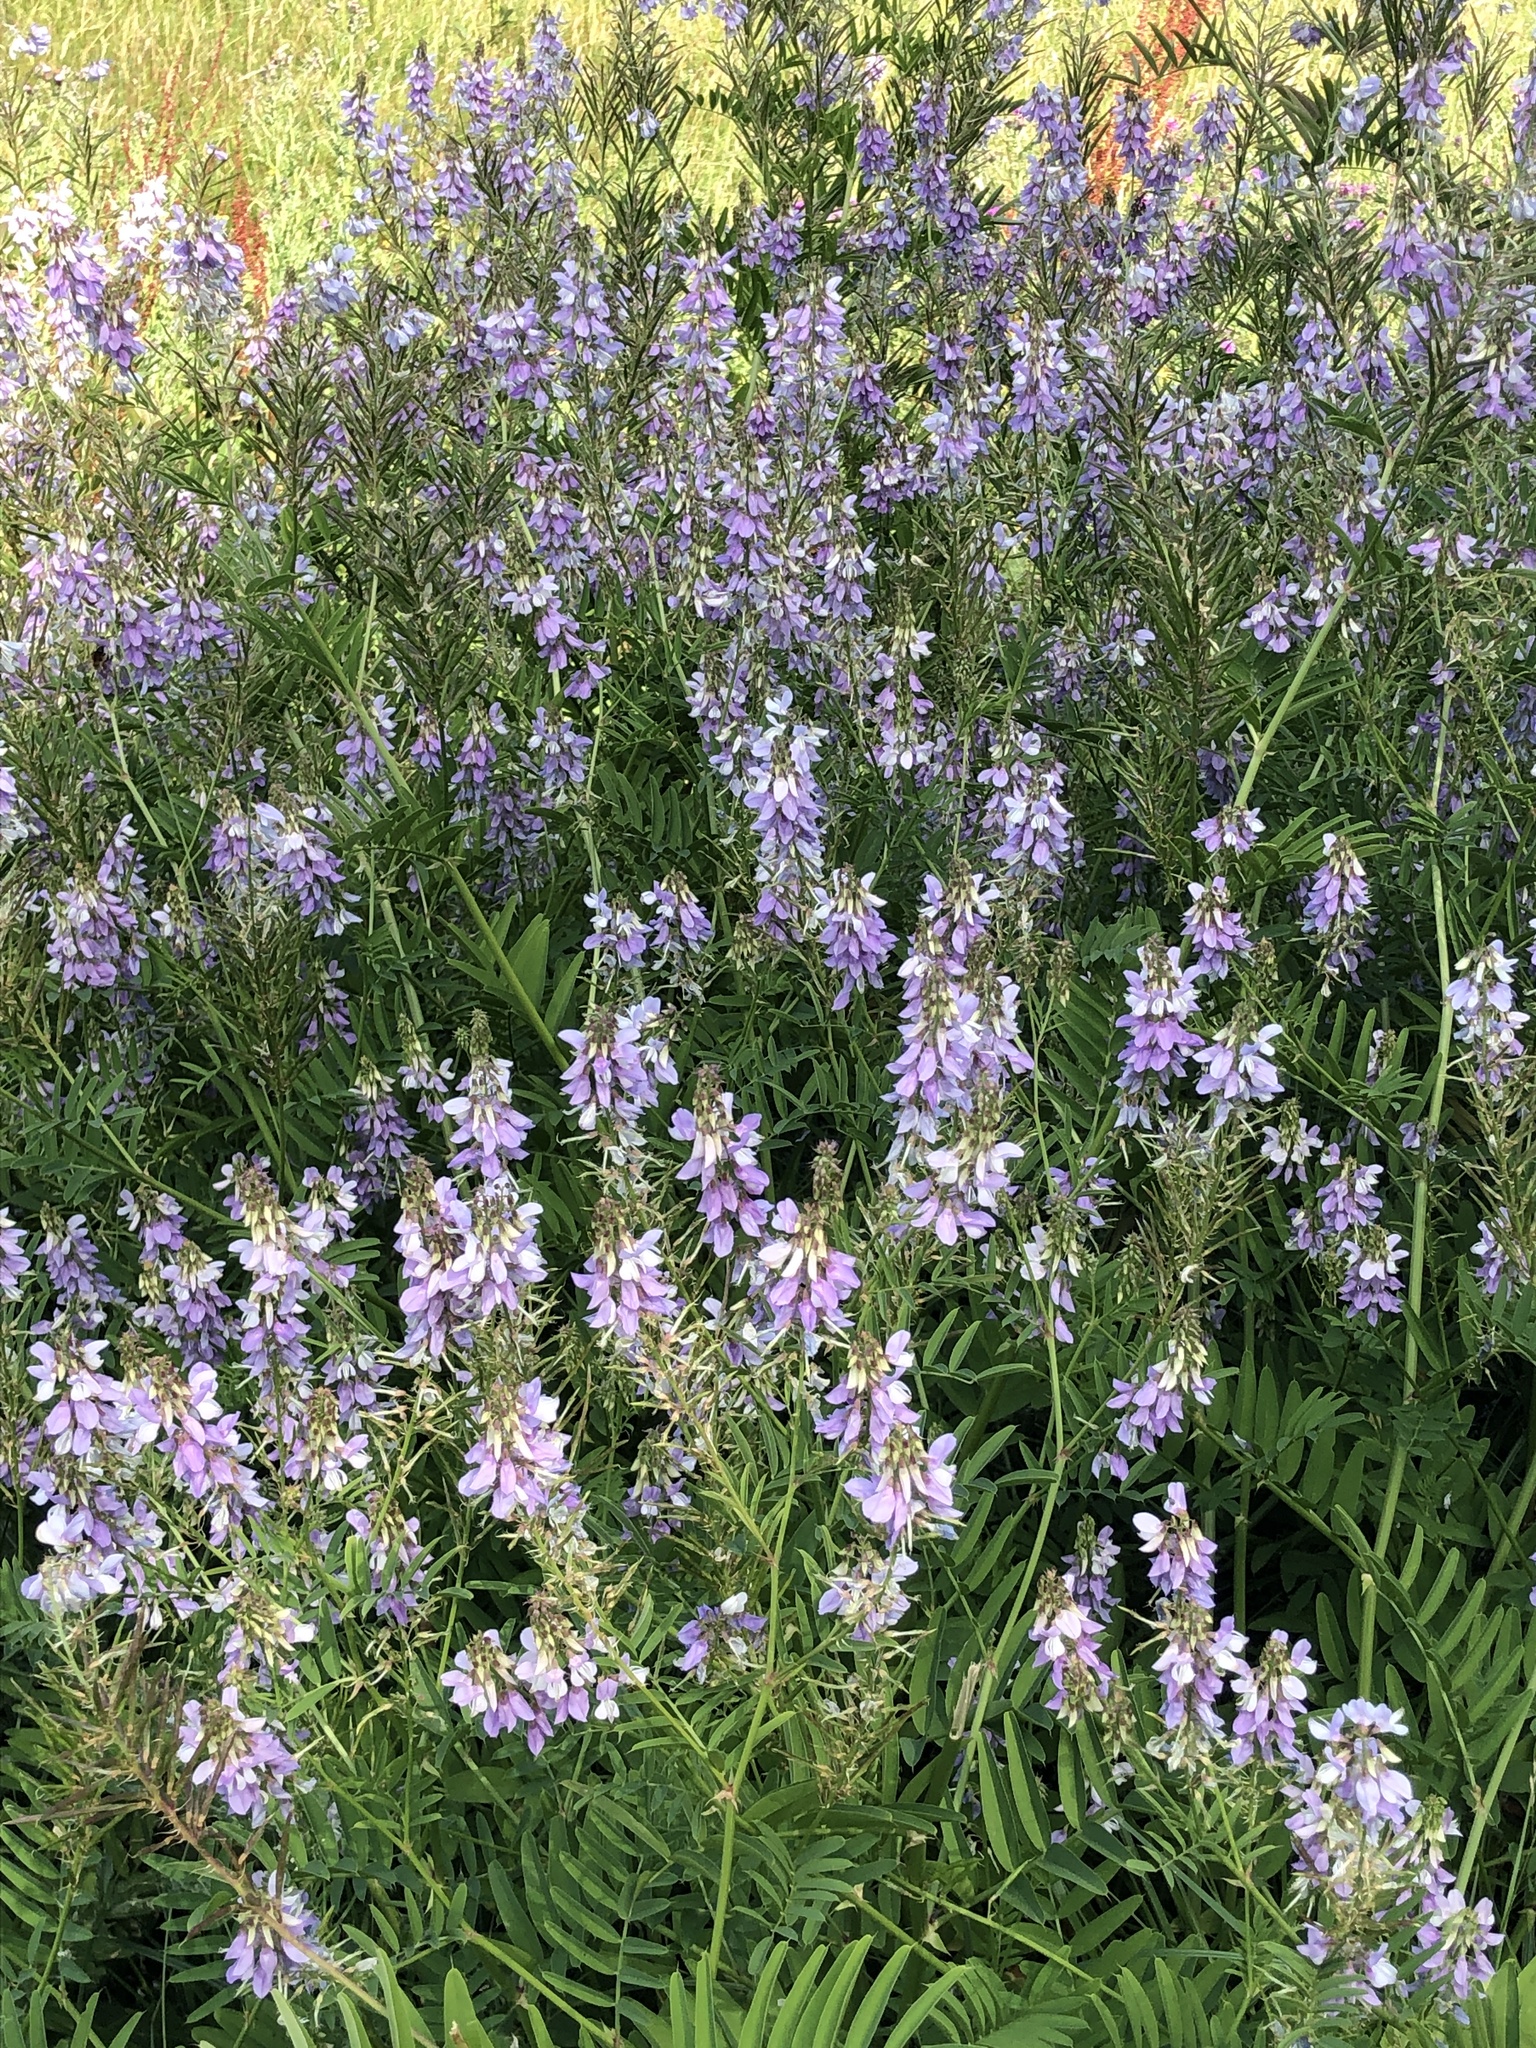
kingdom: Plantae
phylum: Tracheophyta
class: Magnoliopsida
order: Fabales
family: Fabaceae
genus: Galega
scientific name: Galega officinalis
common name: Goat's-rue
